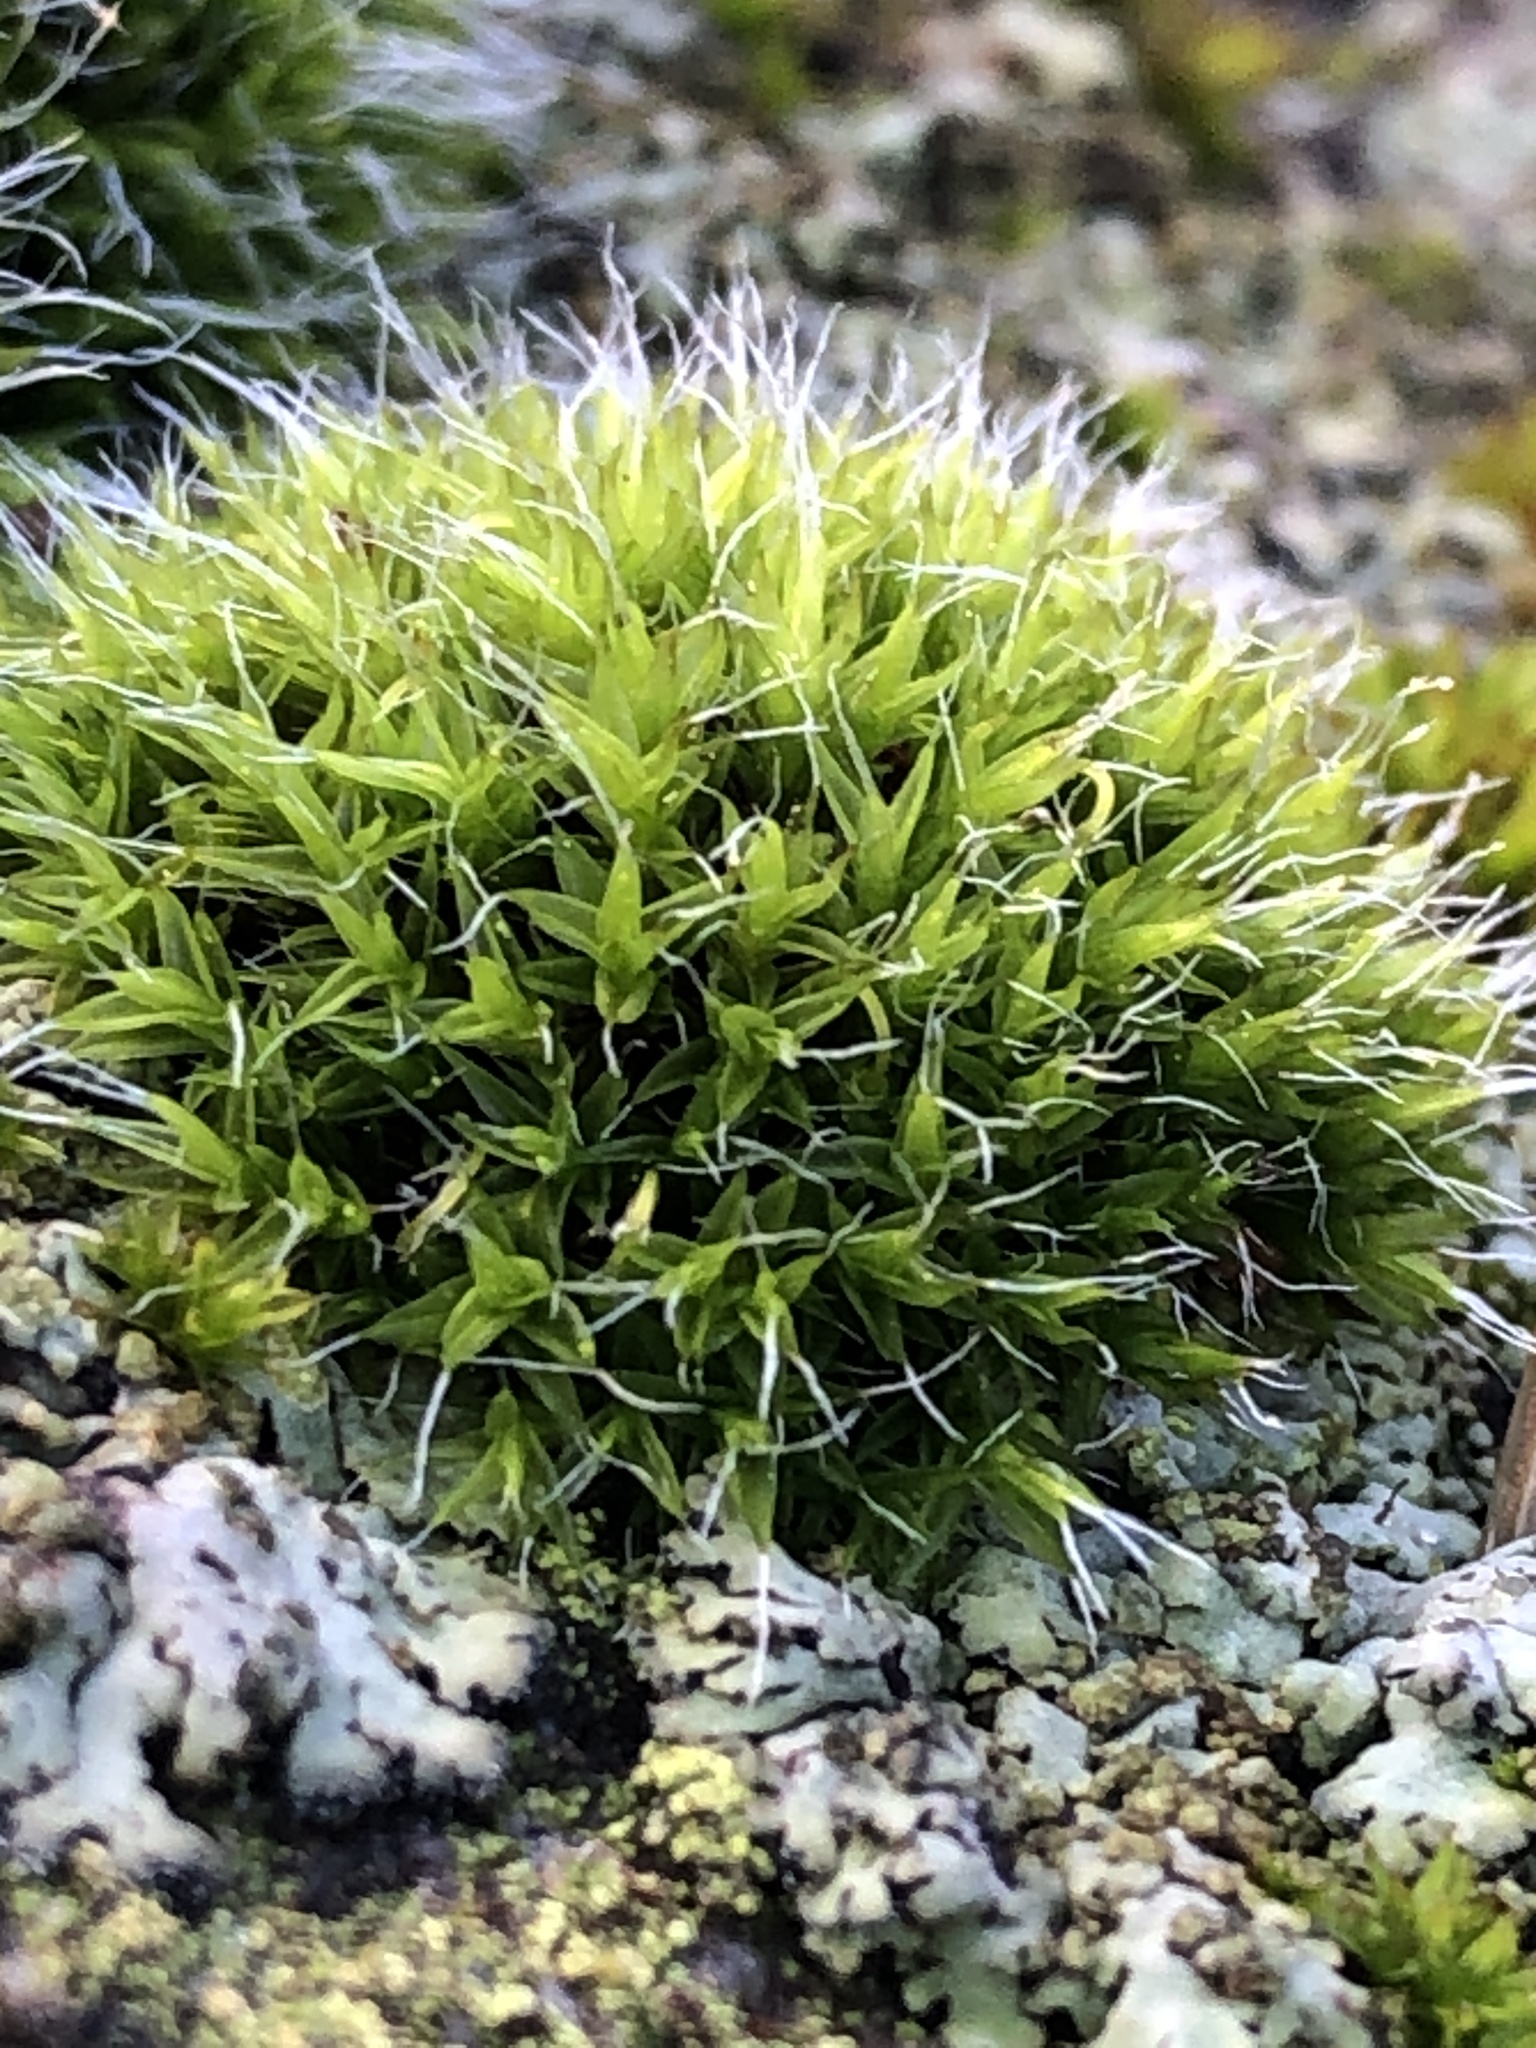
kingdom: Plantae
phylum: Bryophyta
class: Bryopsida
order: Grimmiales
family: Grimmiaceae
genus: Grimmia
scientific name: Grimmia pulvinata
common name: Grey-cushioned grimmia
